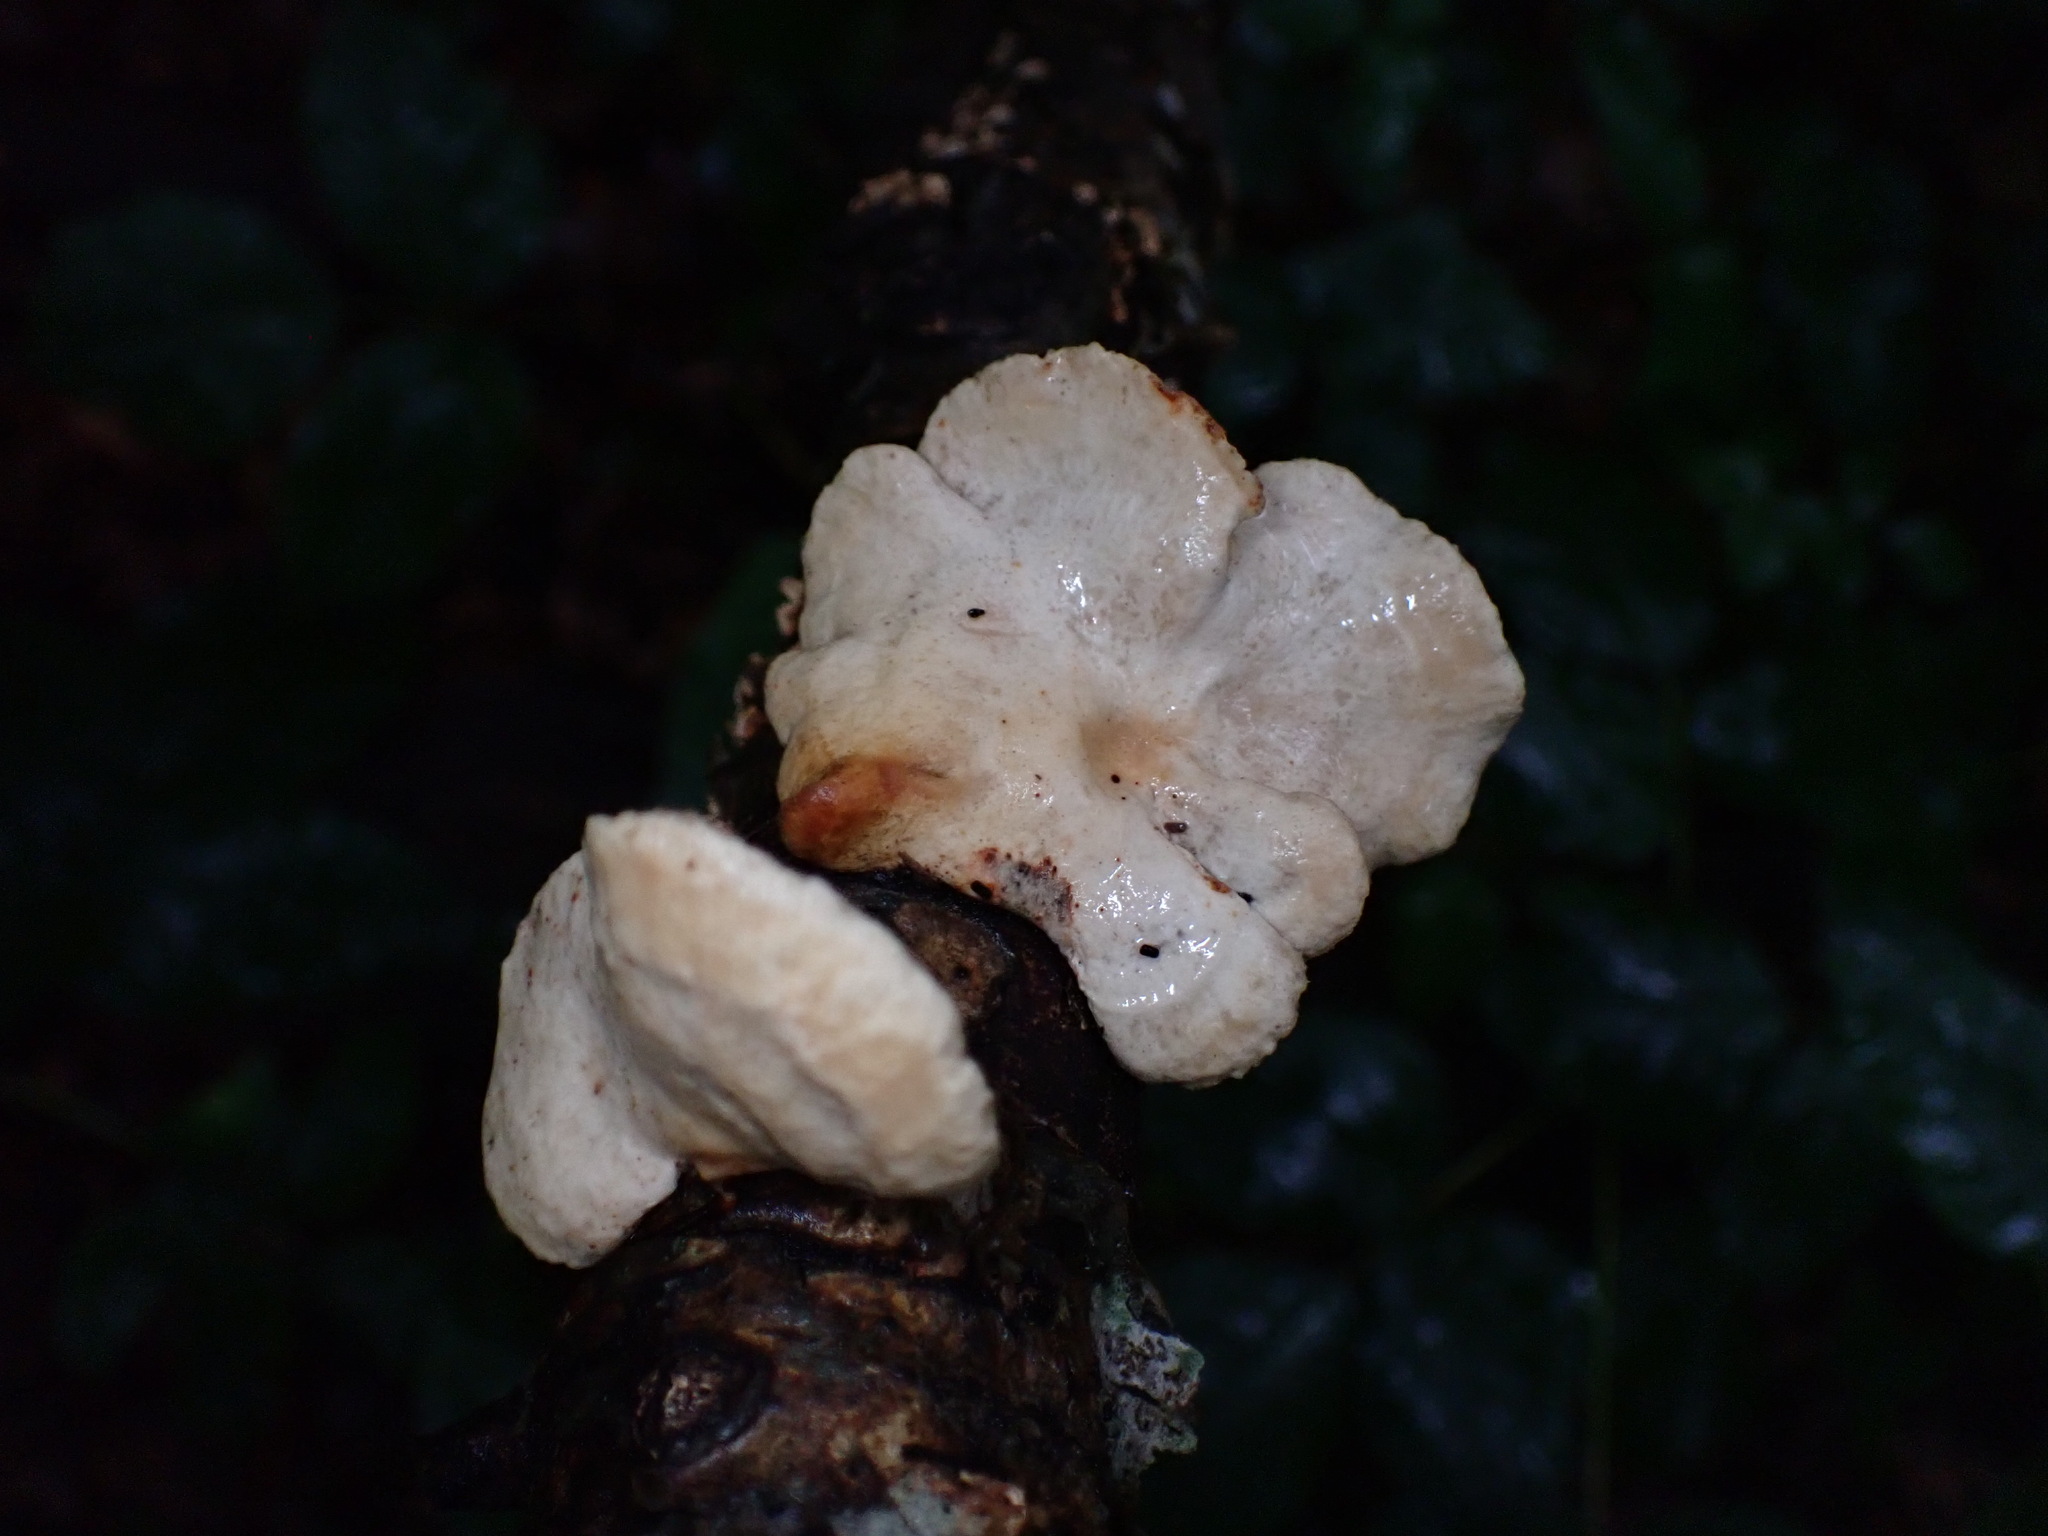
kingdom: Fungi
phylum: Basidiomycota
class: Agaricomycetes
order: Polyporales
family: Polyporaceae
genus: Neofavolus
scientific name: Neofavolus alveolaris
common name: Hexagonal-pored polypore
